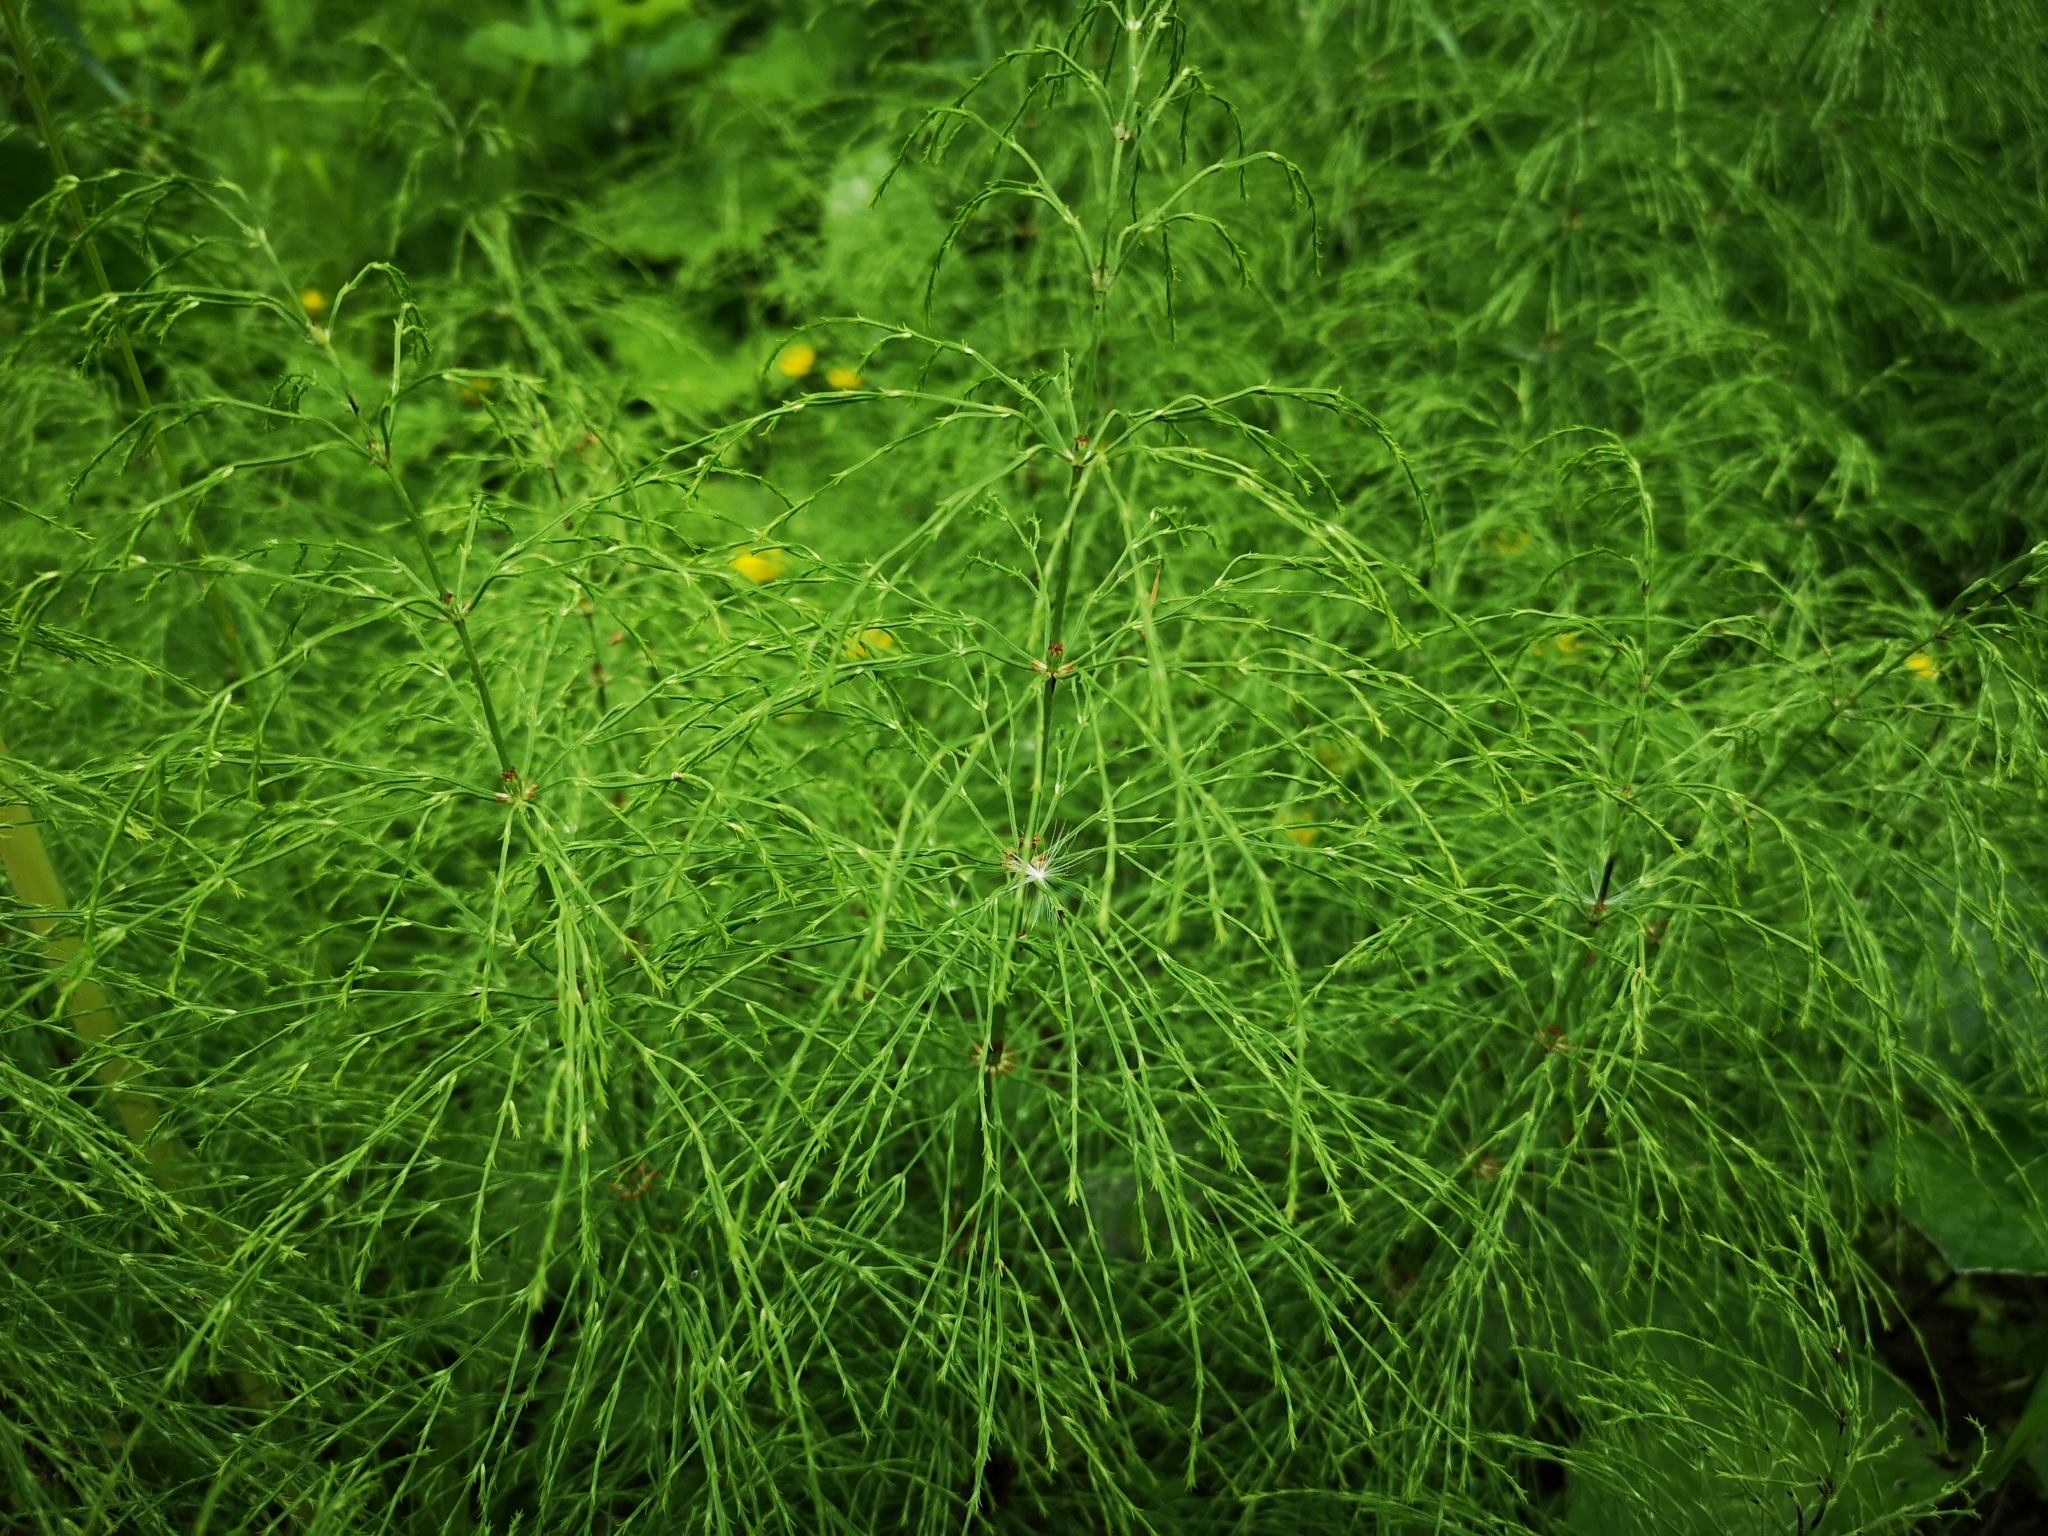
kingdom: Plantae
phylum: Tracheophyta
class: Polypodiopsida
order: Equisetales
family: Equisetaceae
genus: Equisetum
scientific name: Equisetum sylvaticum
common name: Wood horsetail
